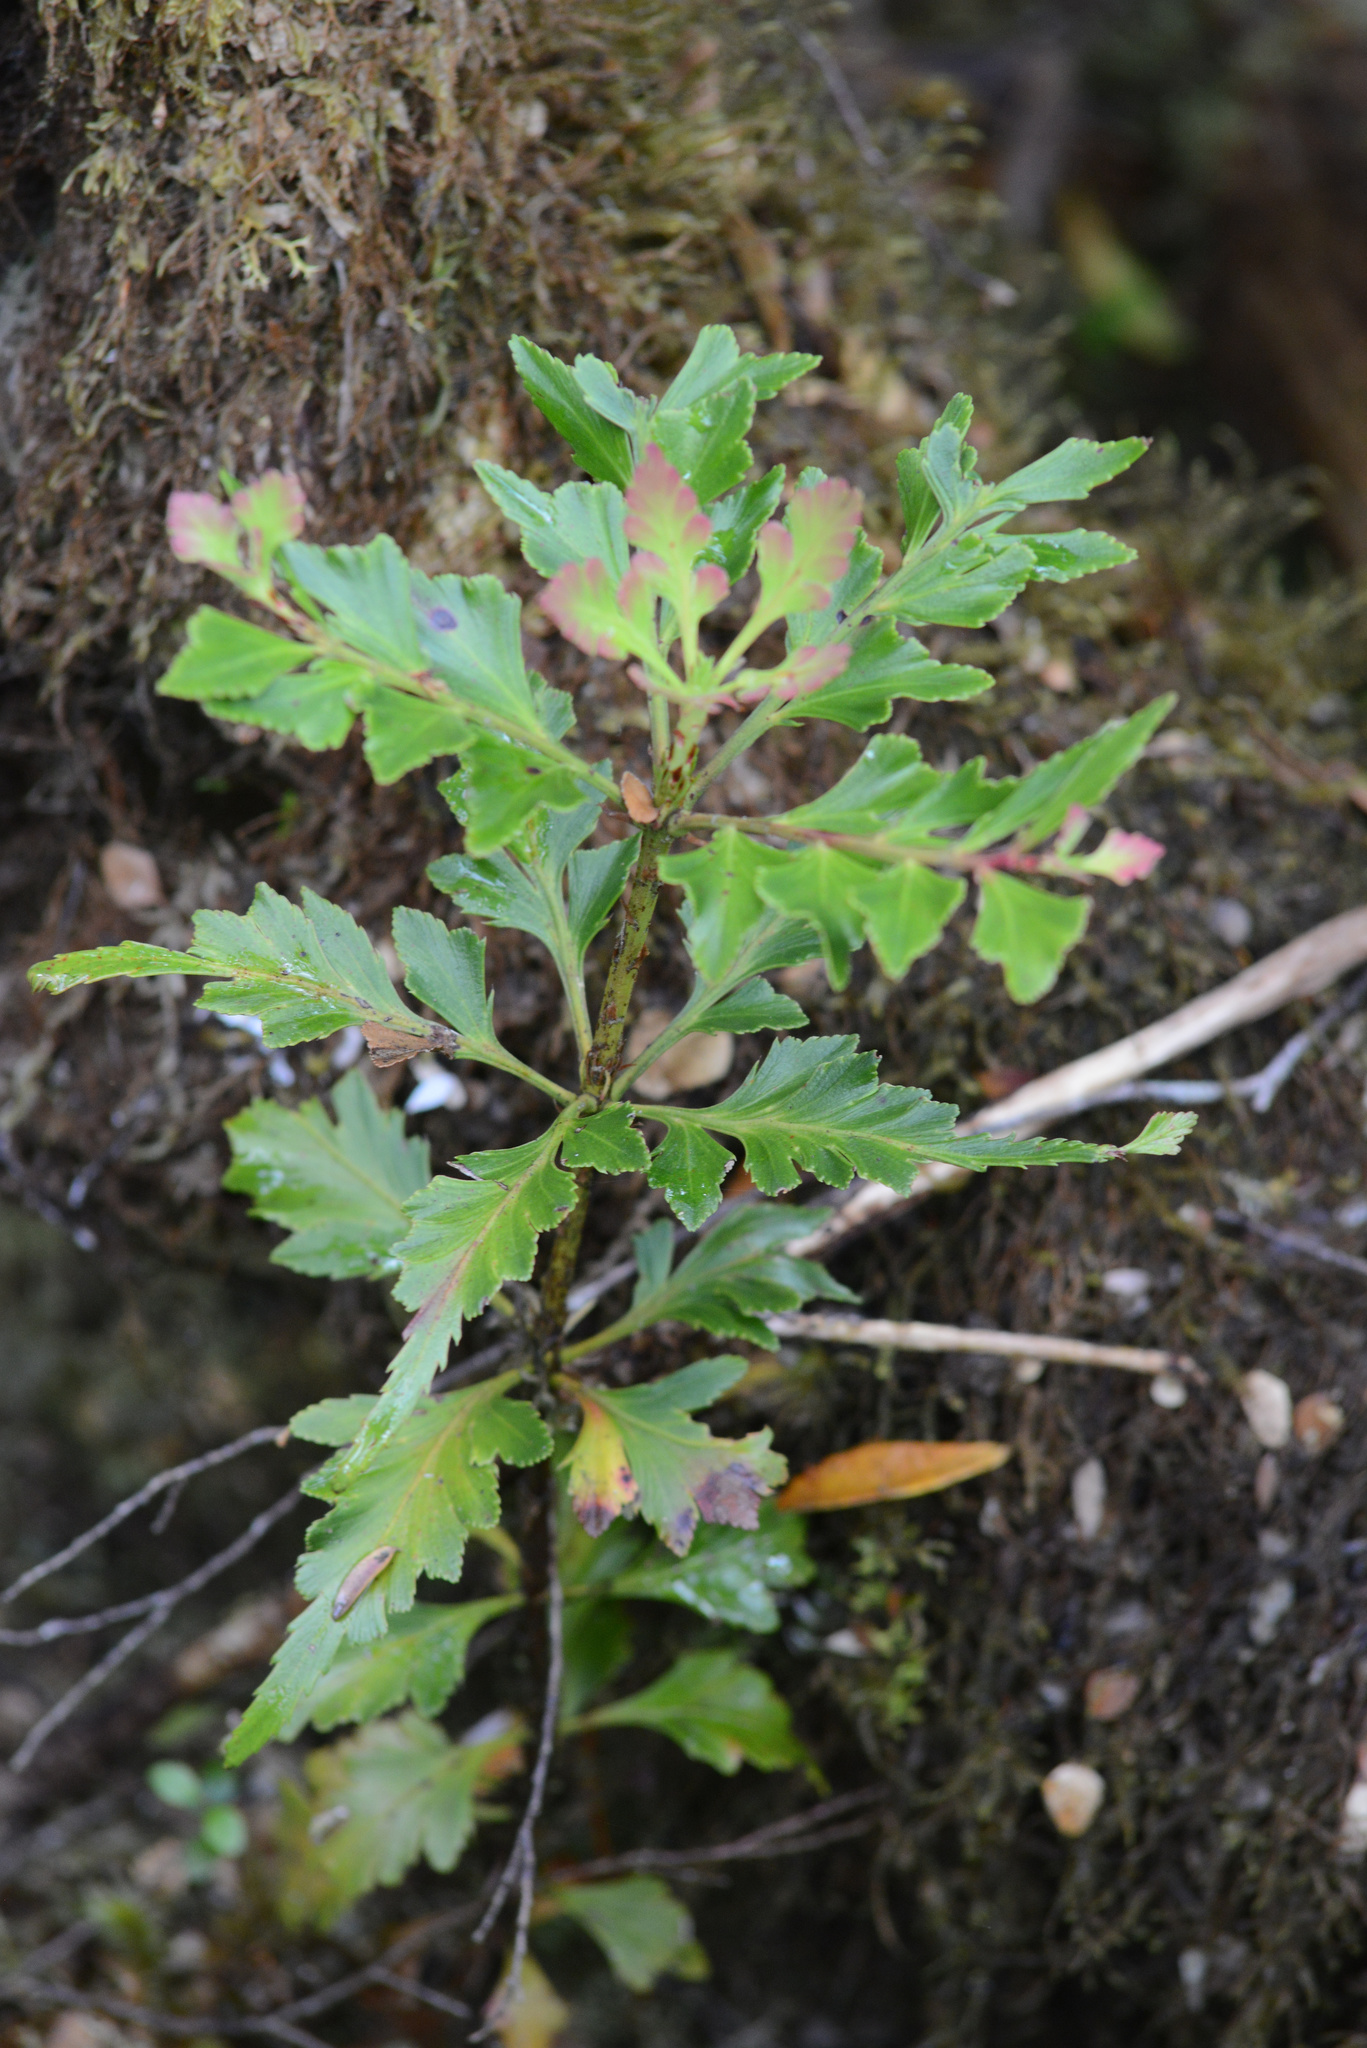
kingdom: Plantae
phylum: Tracheophyta
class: Pinopsida
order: Pinales
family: Phyllocladaceae
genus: Phyllocladus
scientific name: Phyllocladus aspleniifolius
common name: Celery-top pine
